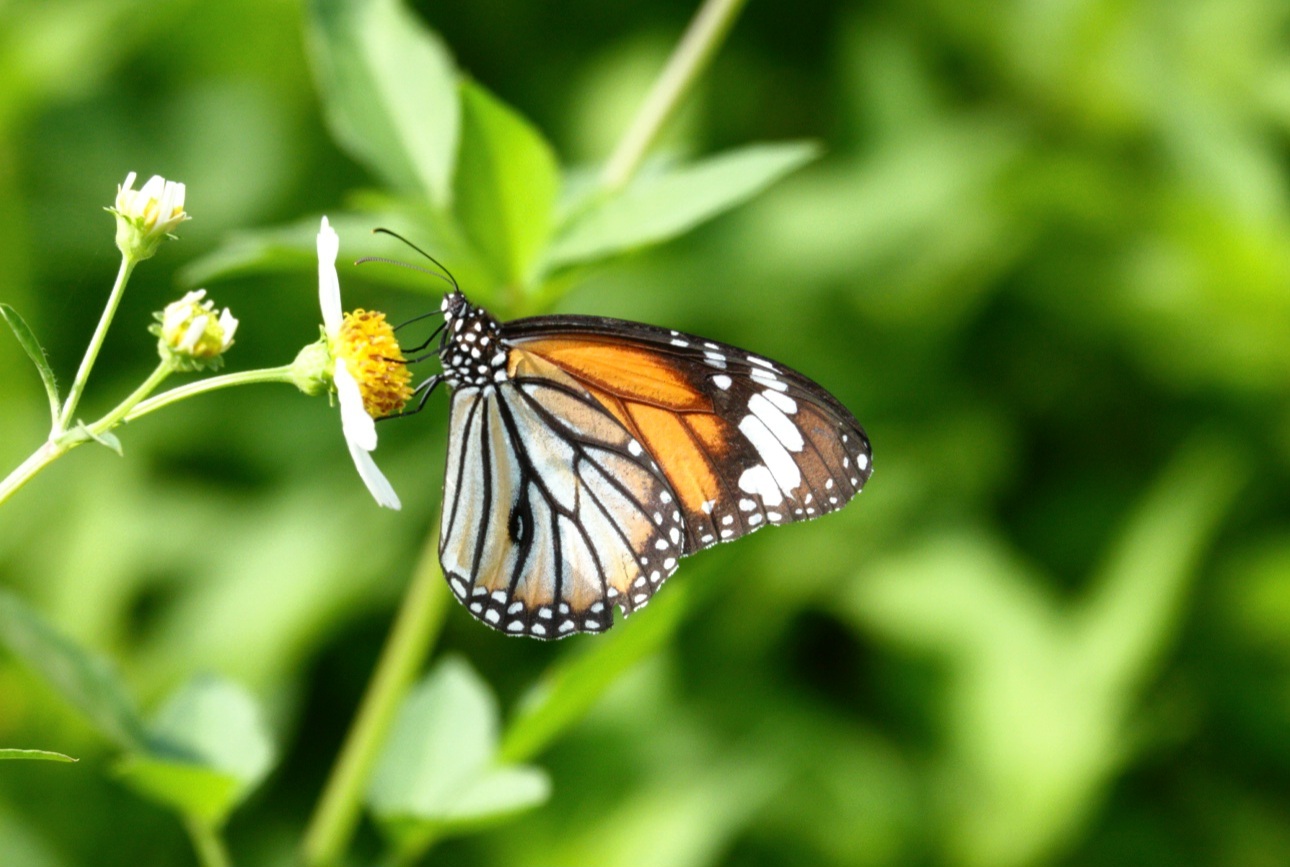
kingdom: Animalia
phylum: Arthropoda
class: Insecta
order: Lepidoptera
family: Nymphalidae
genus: Danaus
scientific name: Danaus genutia
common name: Common tiger butterfly
